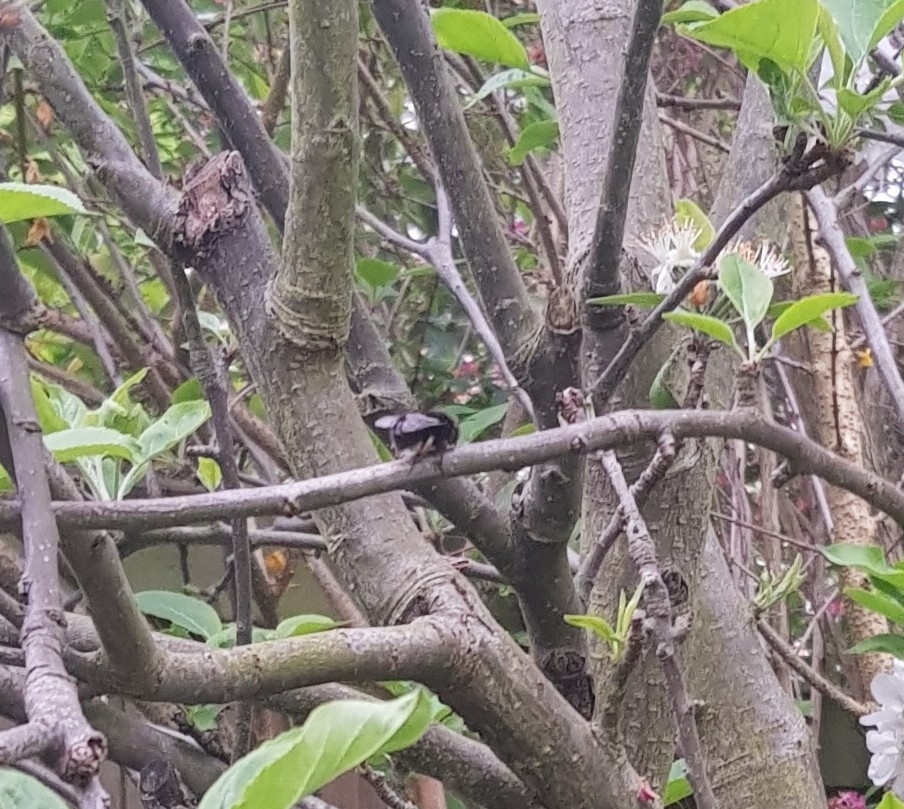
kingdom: Animalia
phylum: Arthropoda
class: Insecta
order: Hymenoptera
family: Apidae
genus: Anthophora
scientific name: Anthophora plumipes
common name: Hairy-footed flower bee
